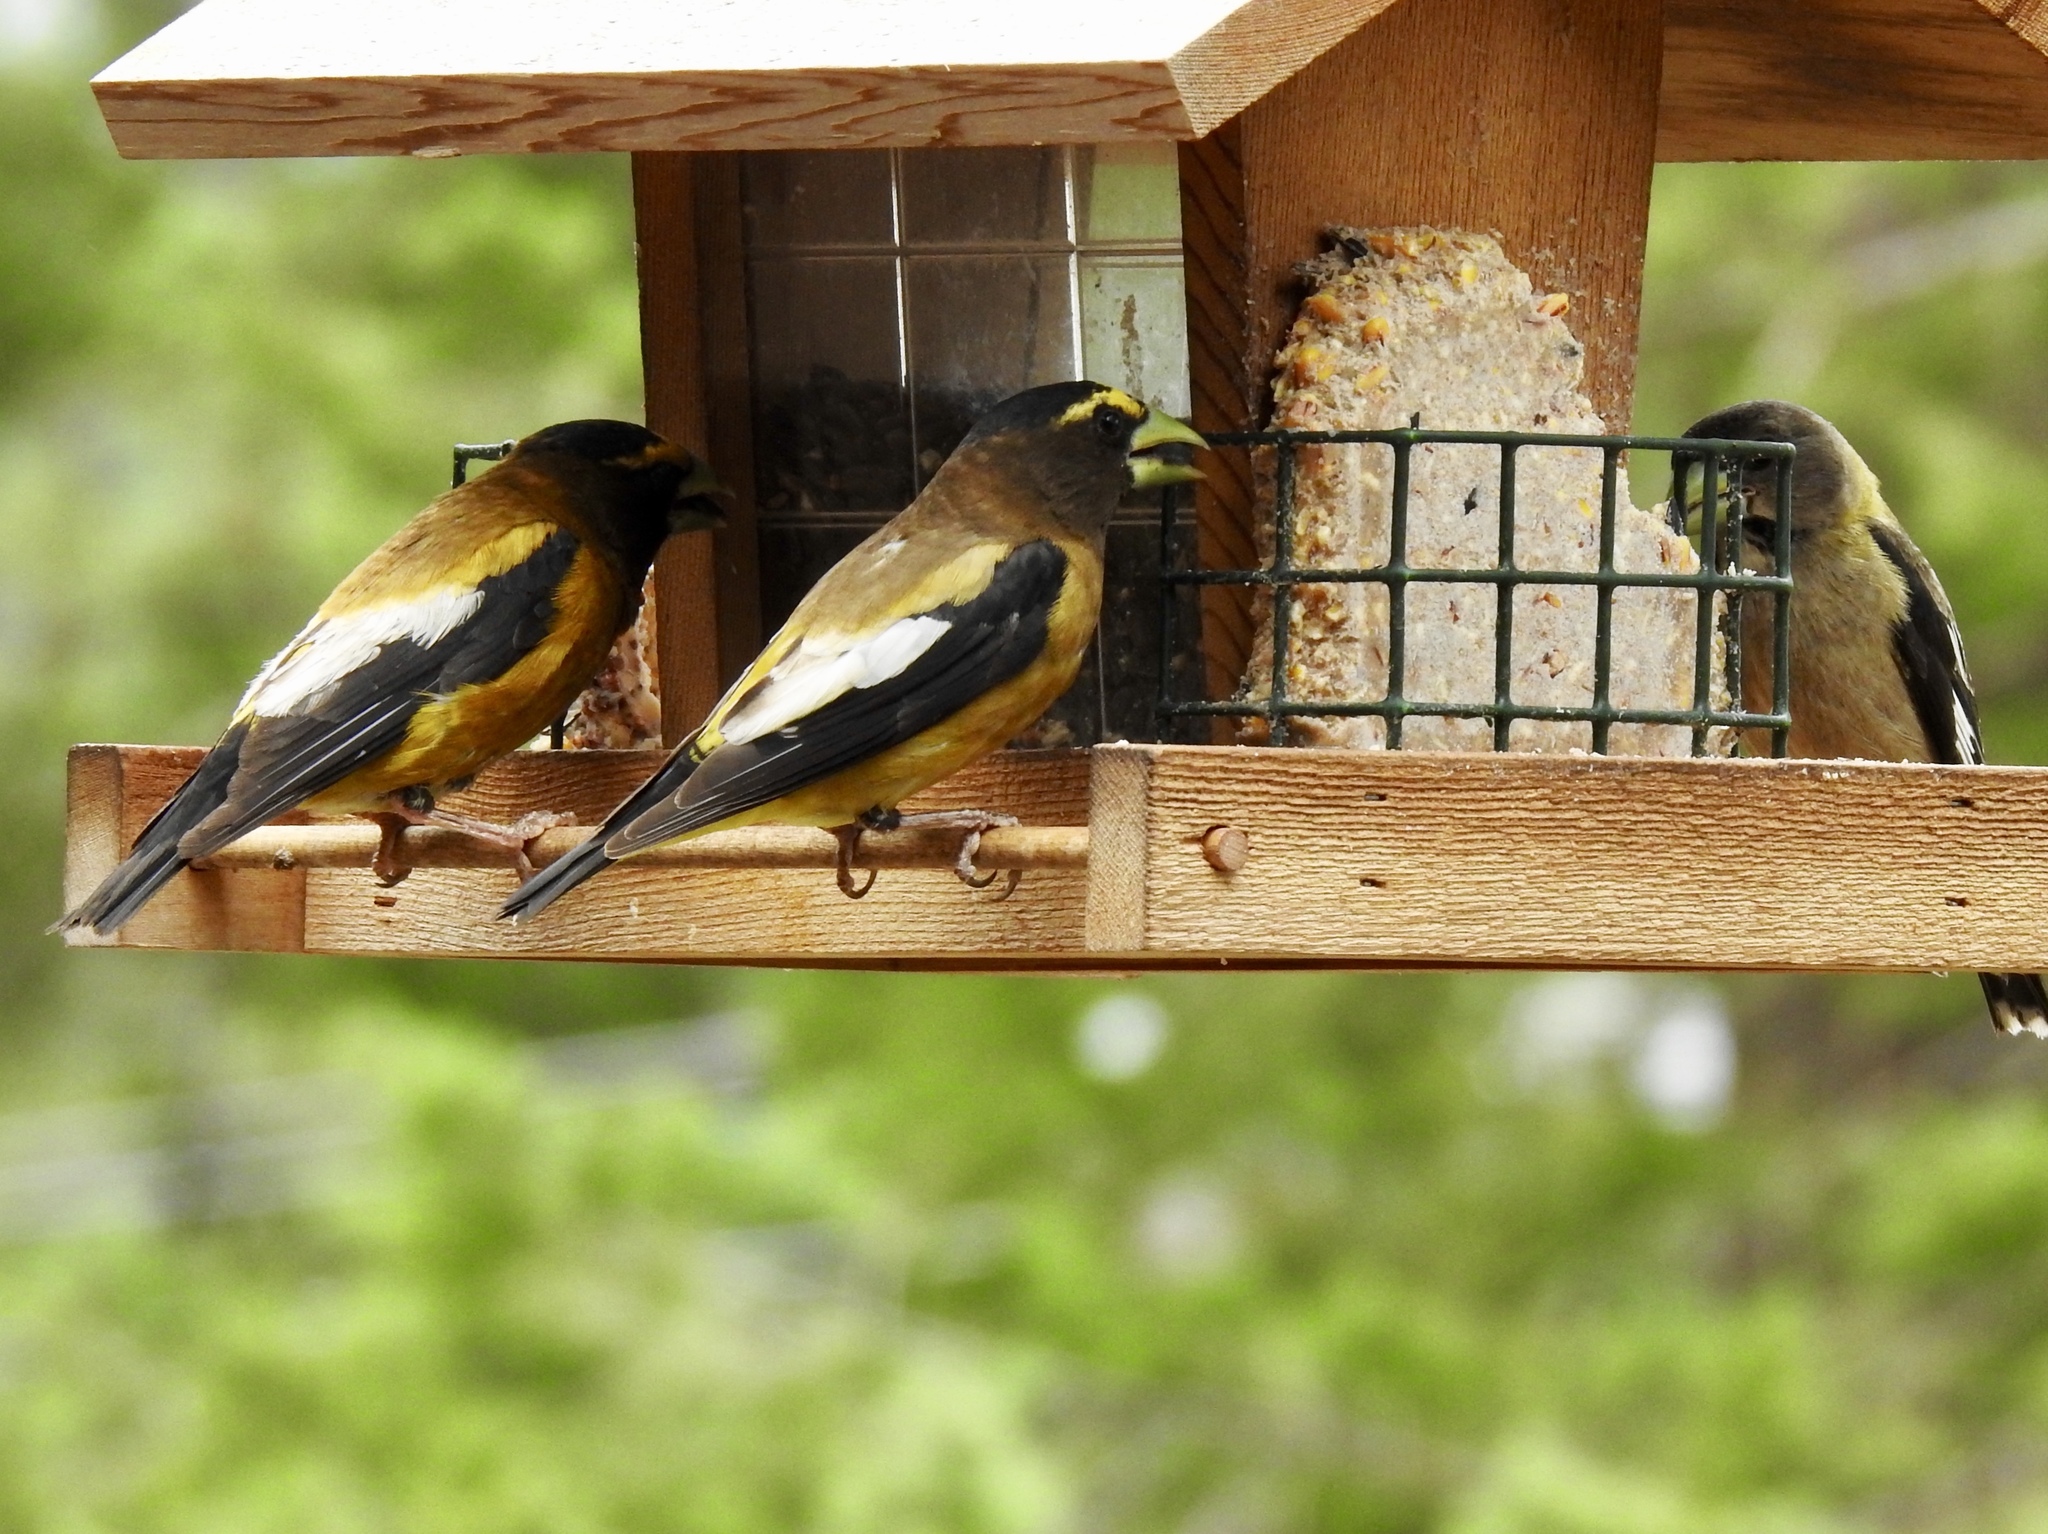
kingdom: Animalia
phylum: Chordata
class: Aves
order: Passeriformes
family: Fringillidae
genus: Hesperiphona
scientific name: Hesperiphona vespertina
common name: Evening grosbeak
